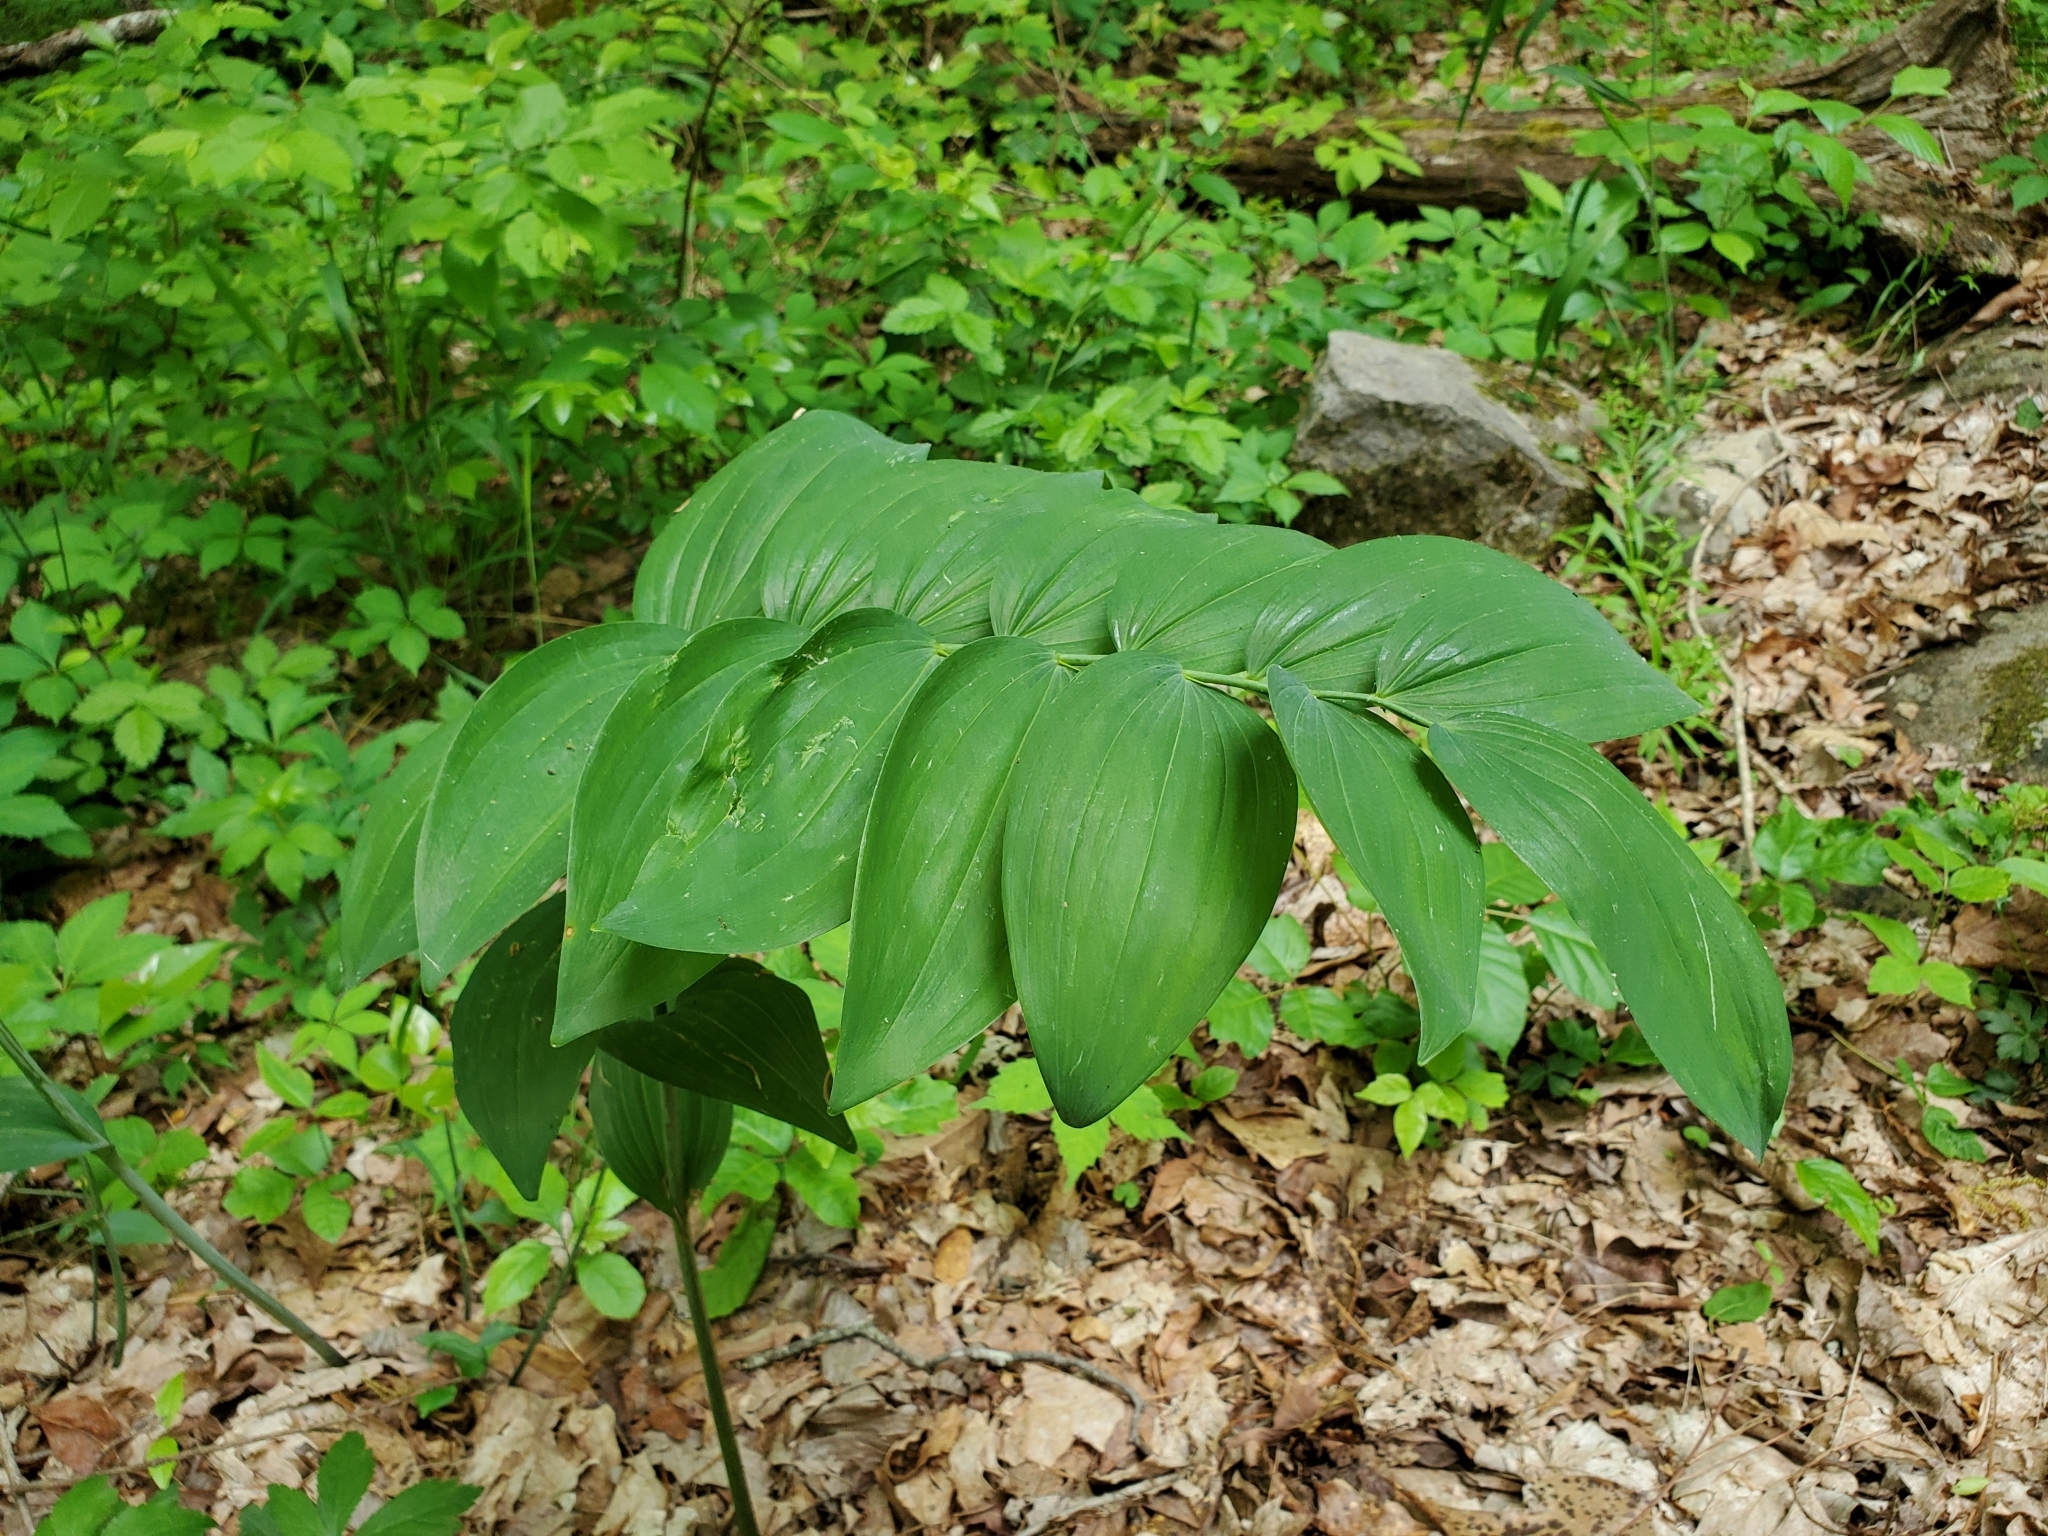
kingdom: Plantae
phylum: Tracheophyta
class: Liliopsida
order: Asparagales
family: Asparagaceae
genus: Polygonatum
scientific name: Polygonatum biflorum
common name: American solomon's-seal
